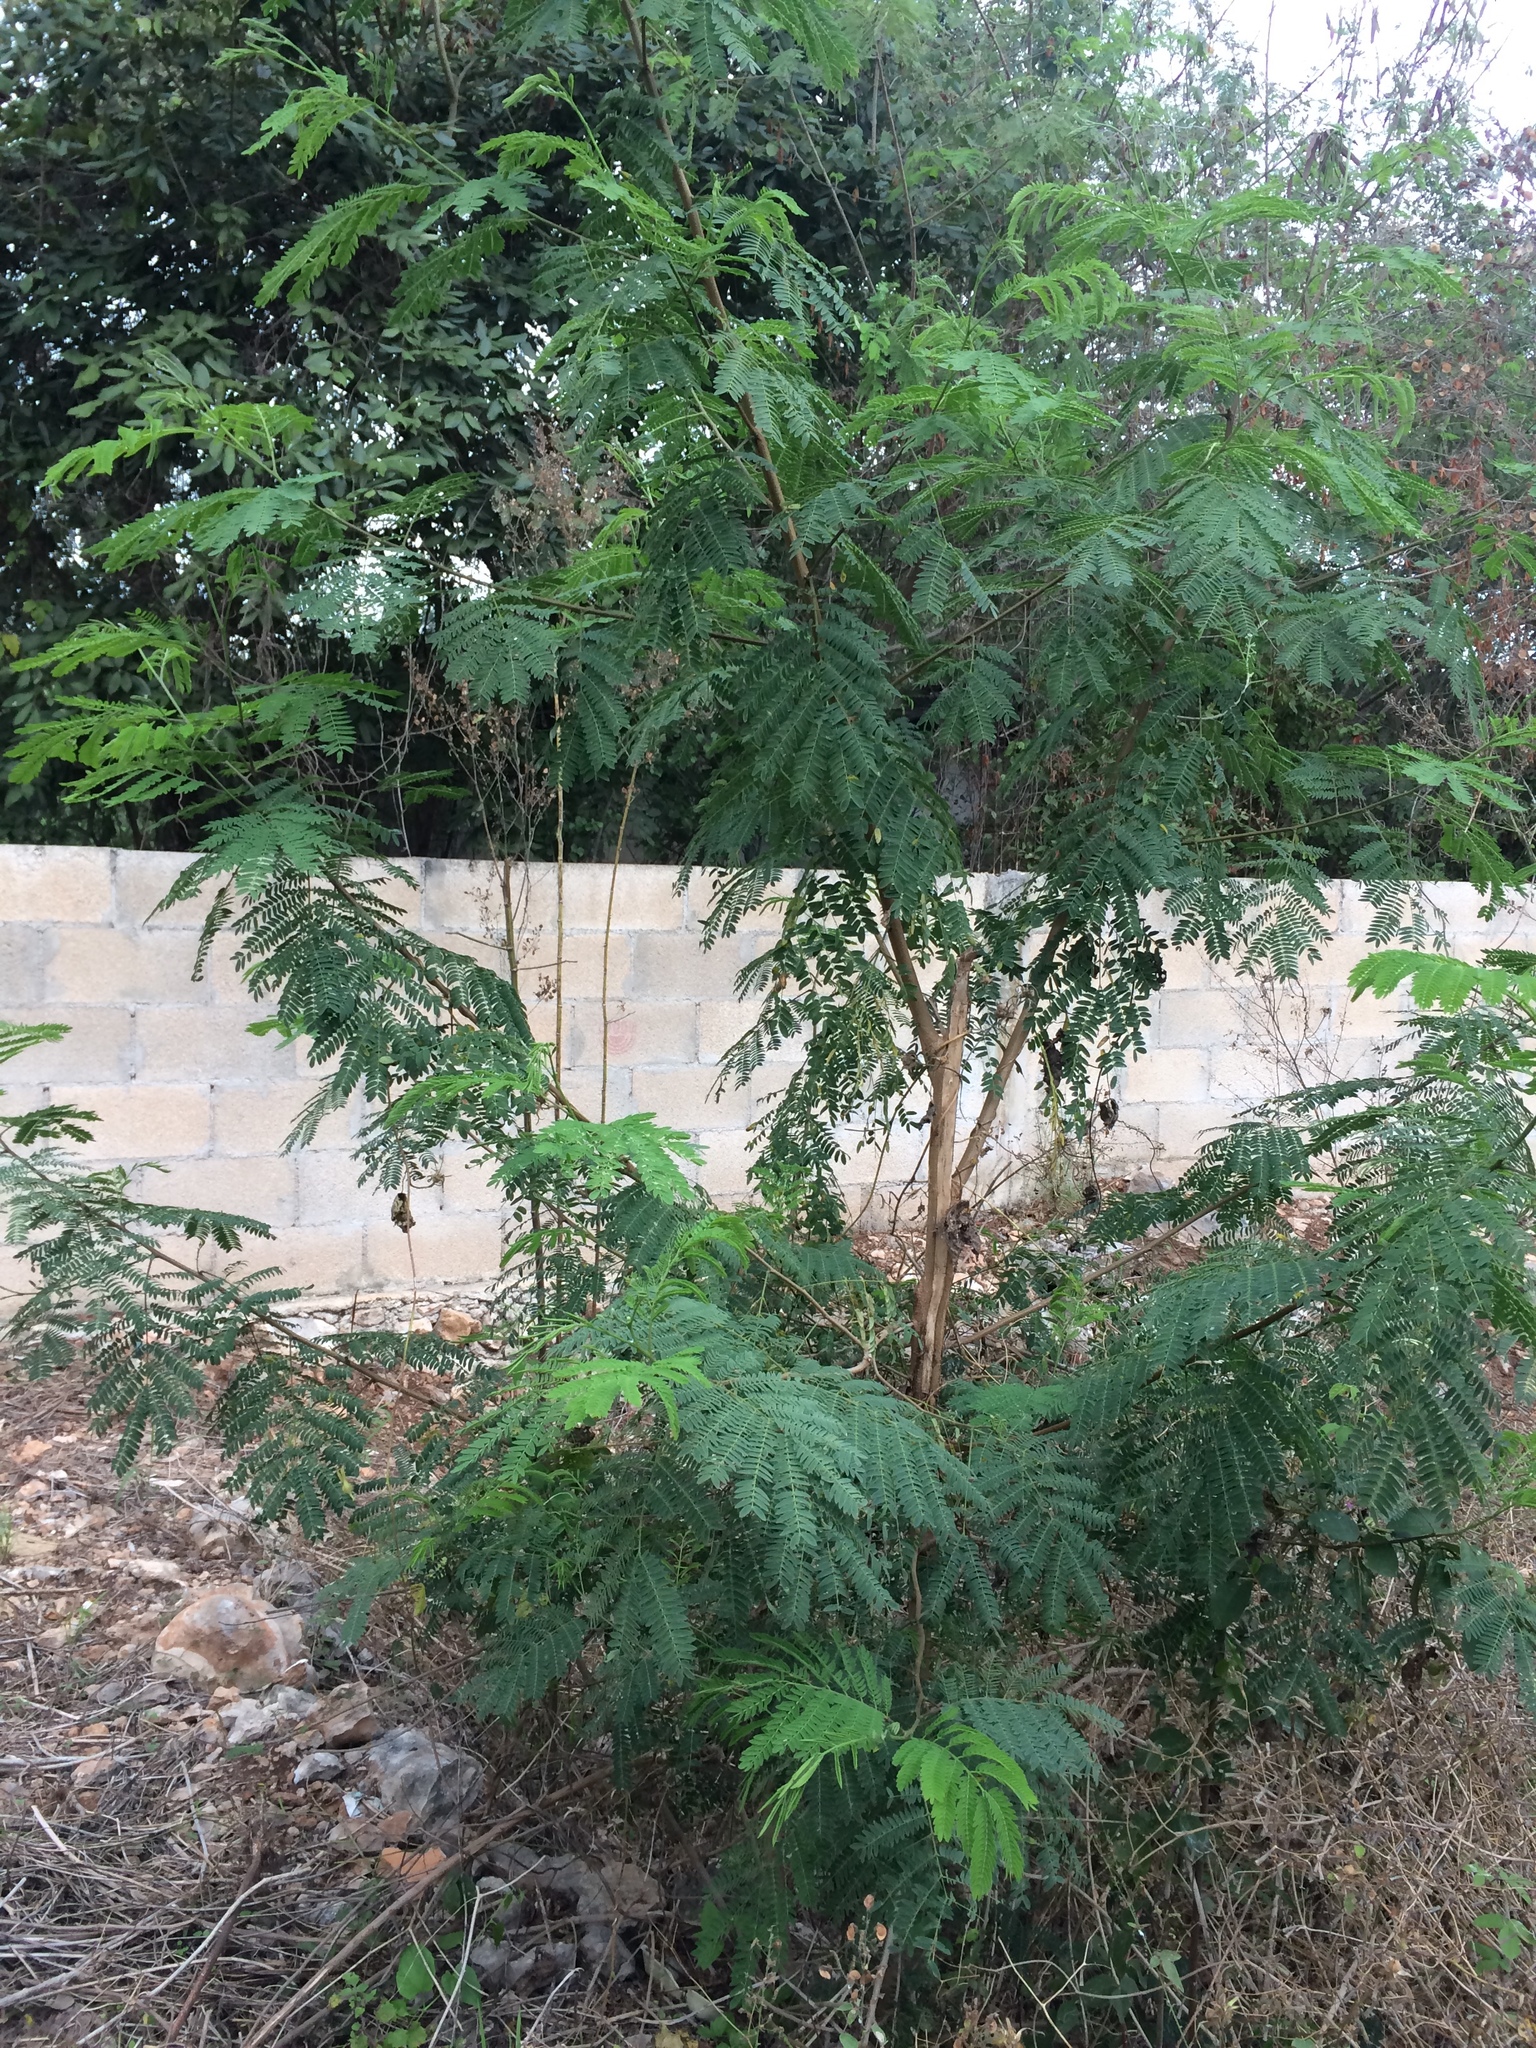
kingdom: Plantae
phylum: Tracheophyta
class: Magnoliopsida
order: Fabales
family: Fabaceae
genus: Leucaena
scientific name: Leucaena leucocephala
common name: White leadtree
